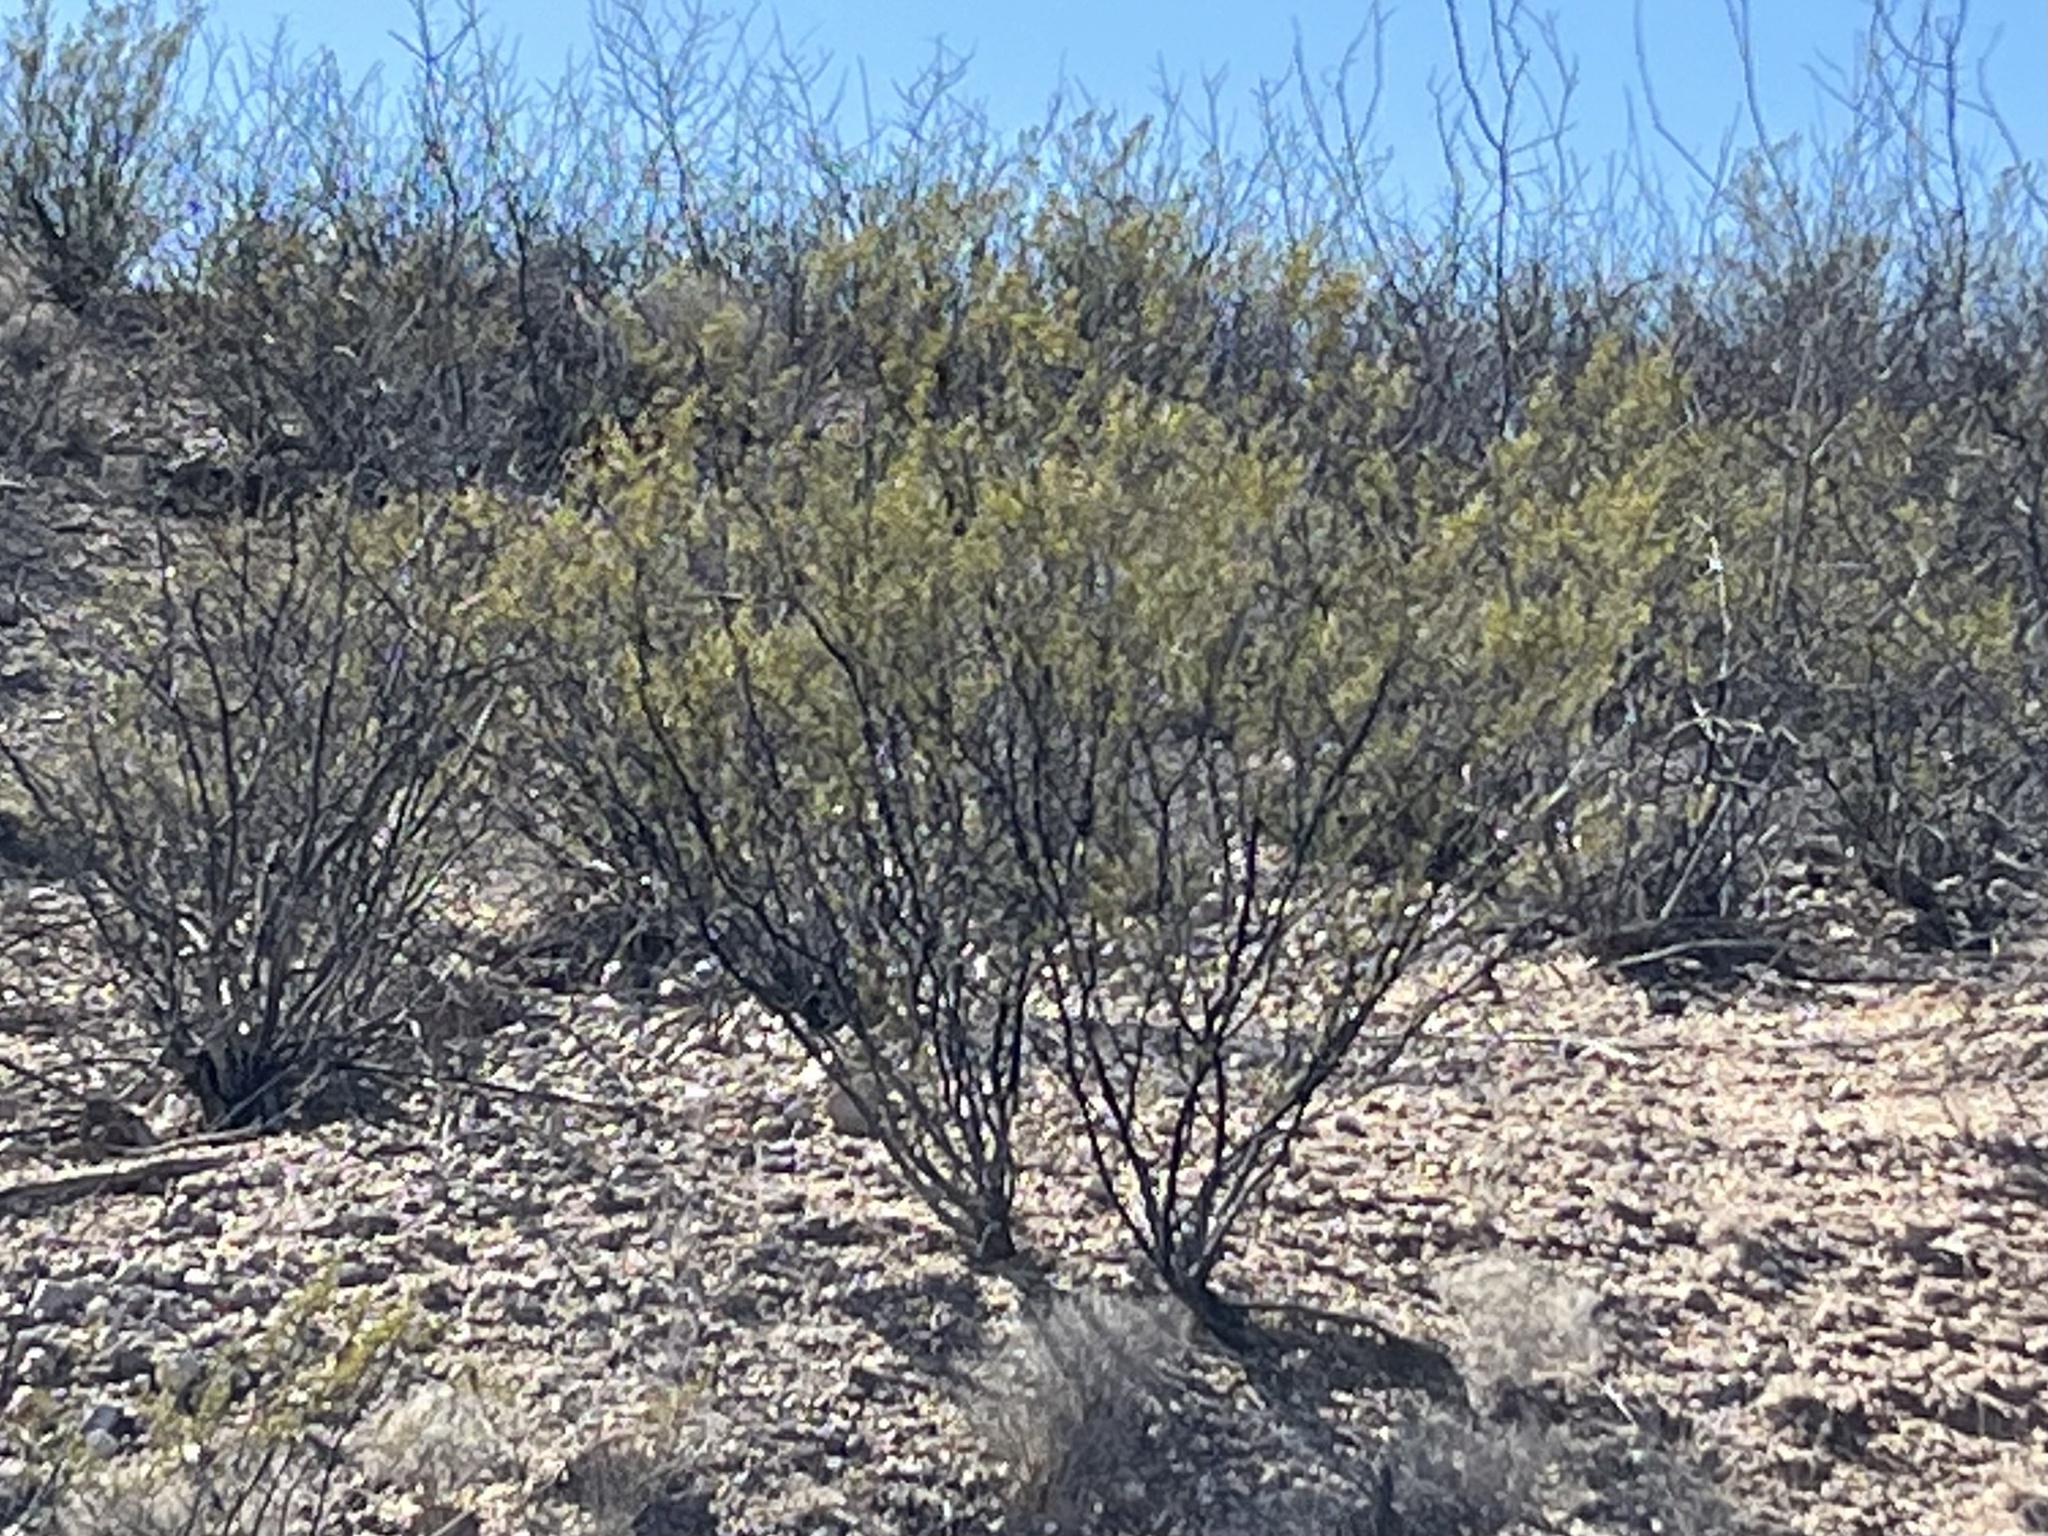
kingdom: Plantae
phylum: Tracheophyta
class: Magnoliopsida
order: Zygophyllales
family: Zygophyllaceae
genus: Larrea
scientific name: Larrea tridentata
